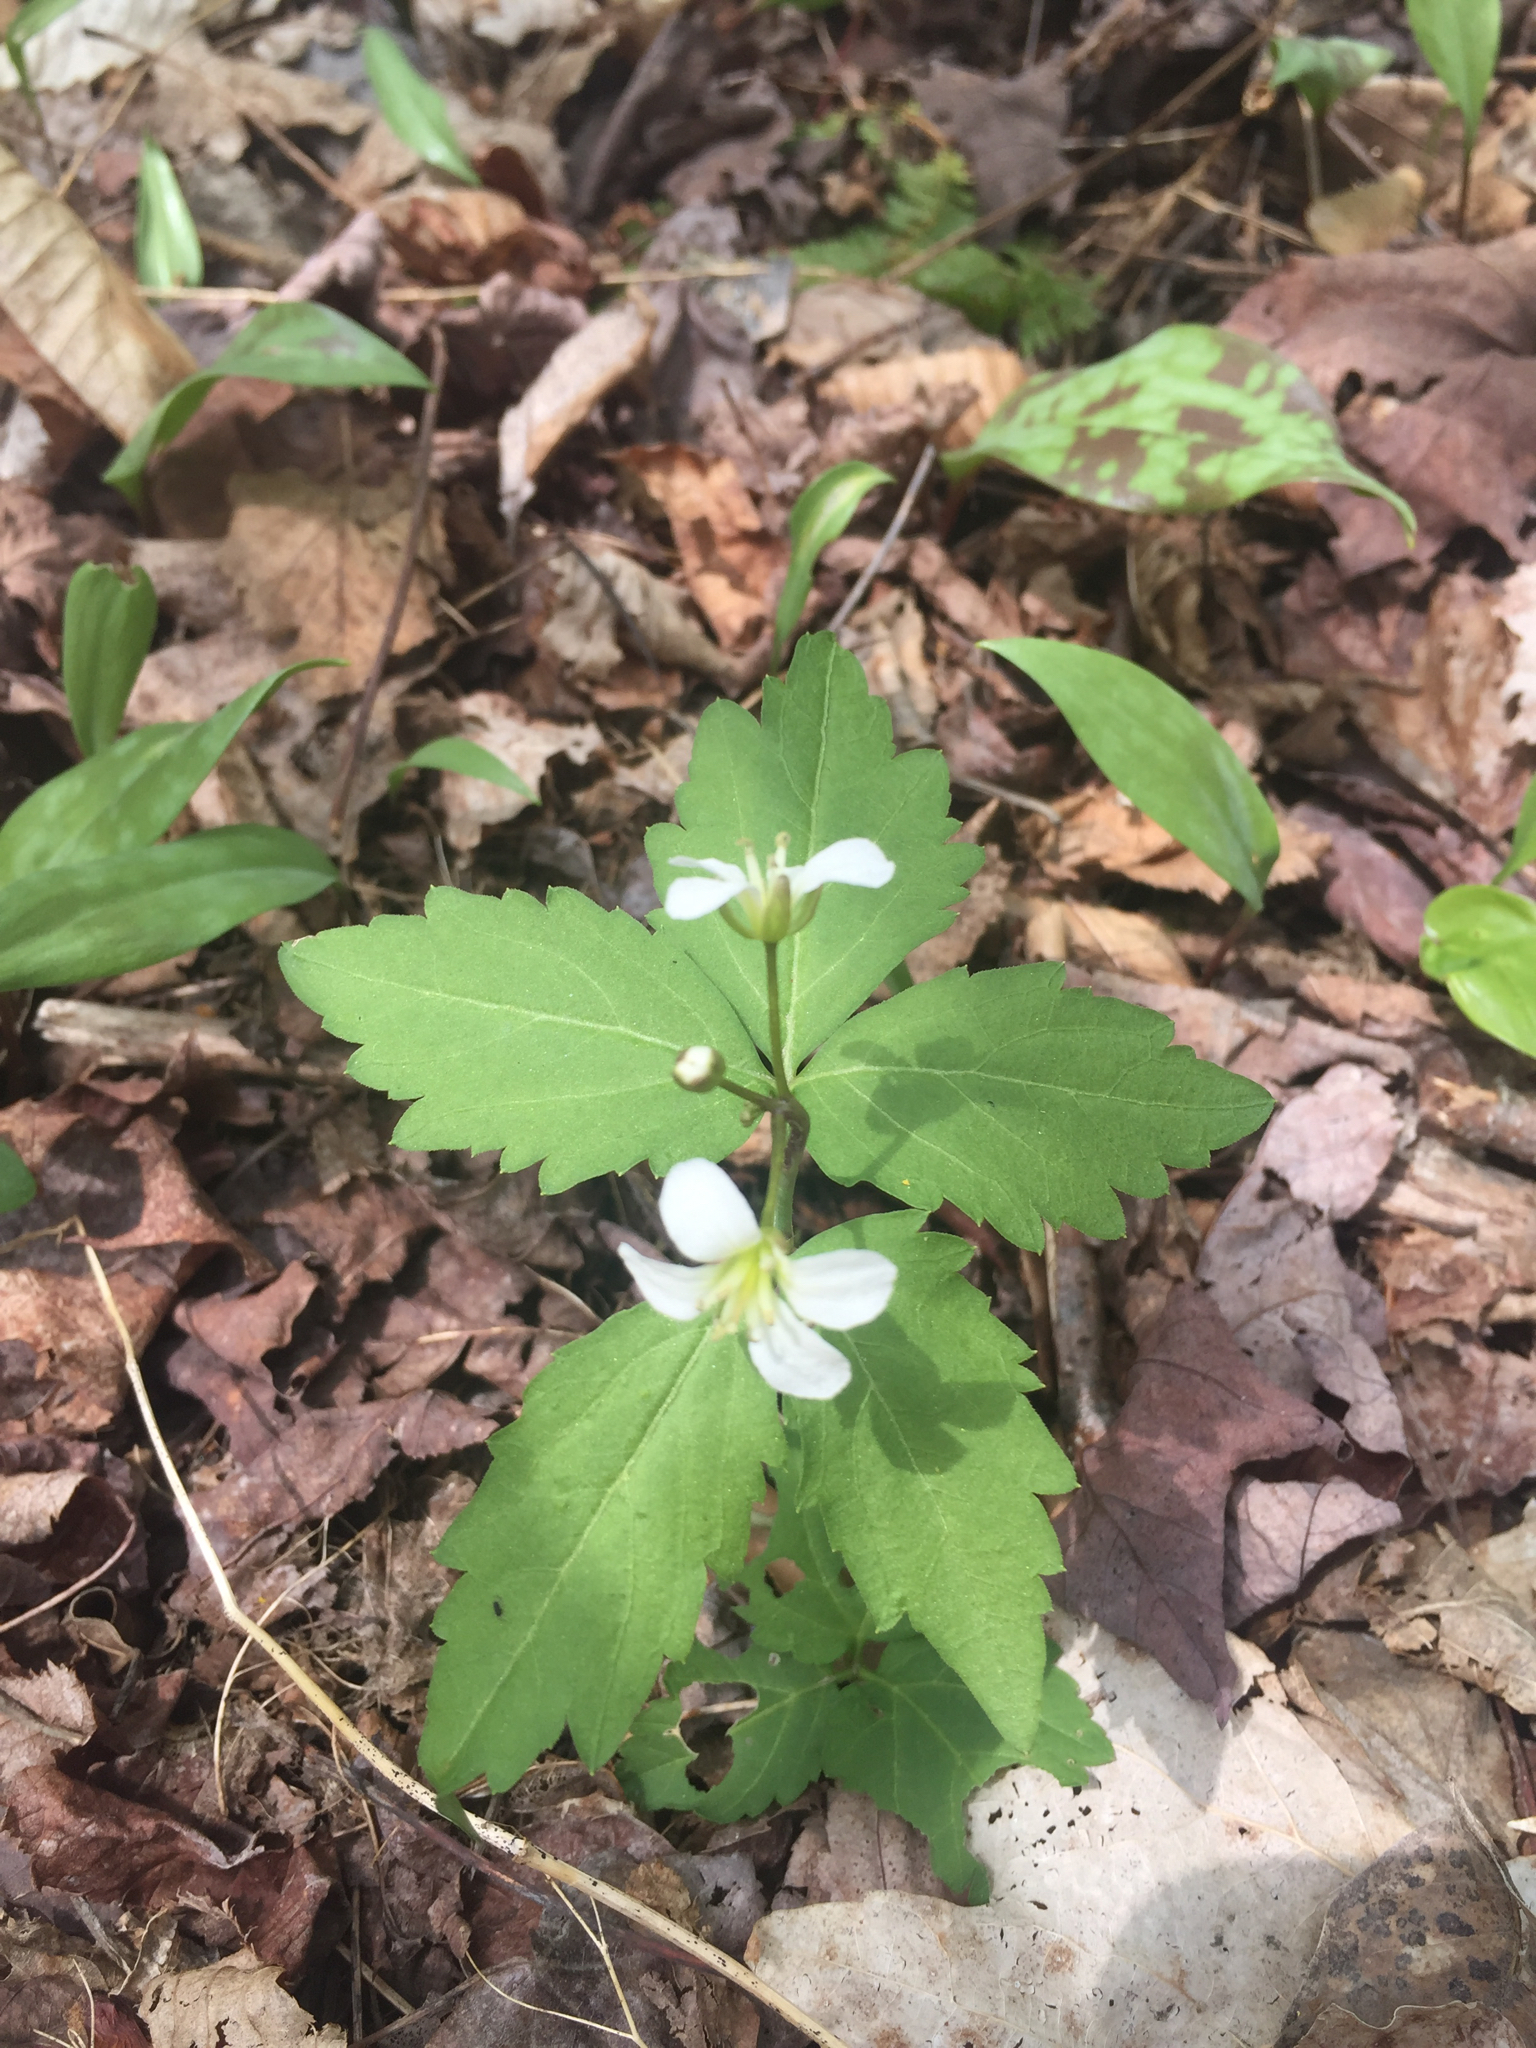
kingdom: Plantae
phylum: Tracheophyta
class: Magnoliopsida
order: Brassicales
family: Brassicaceae
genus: Cardamine
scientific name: Cardamine diphylla
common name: Broad-leaved toothwort
